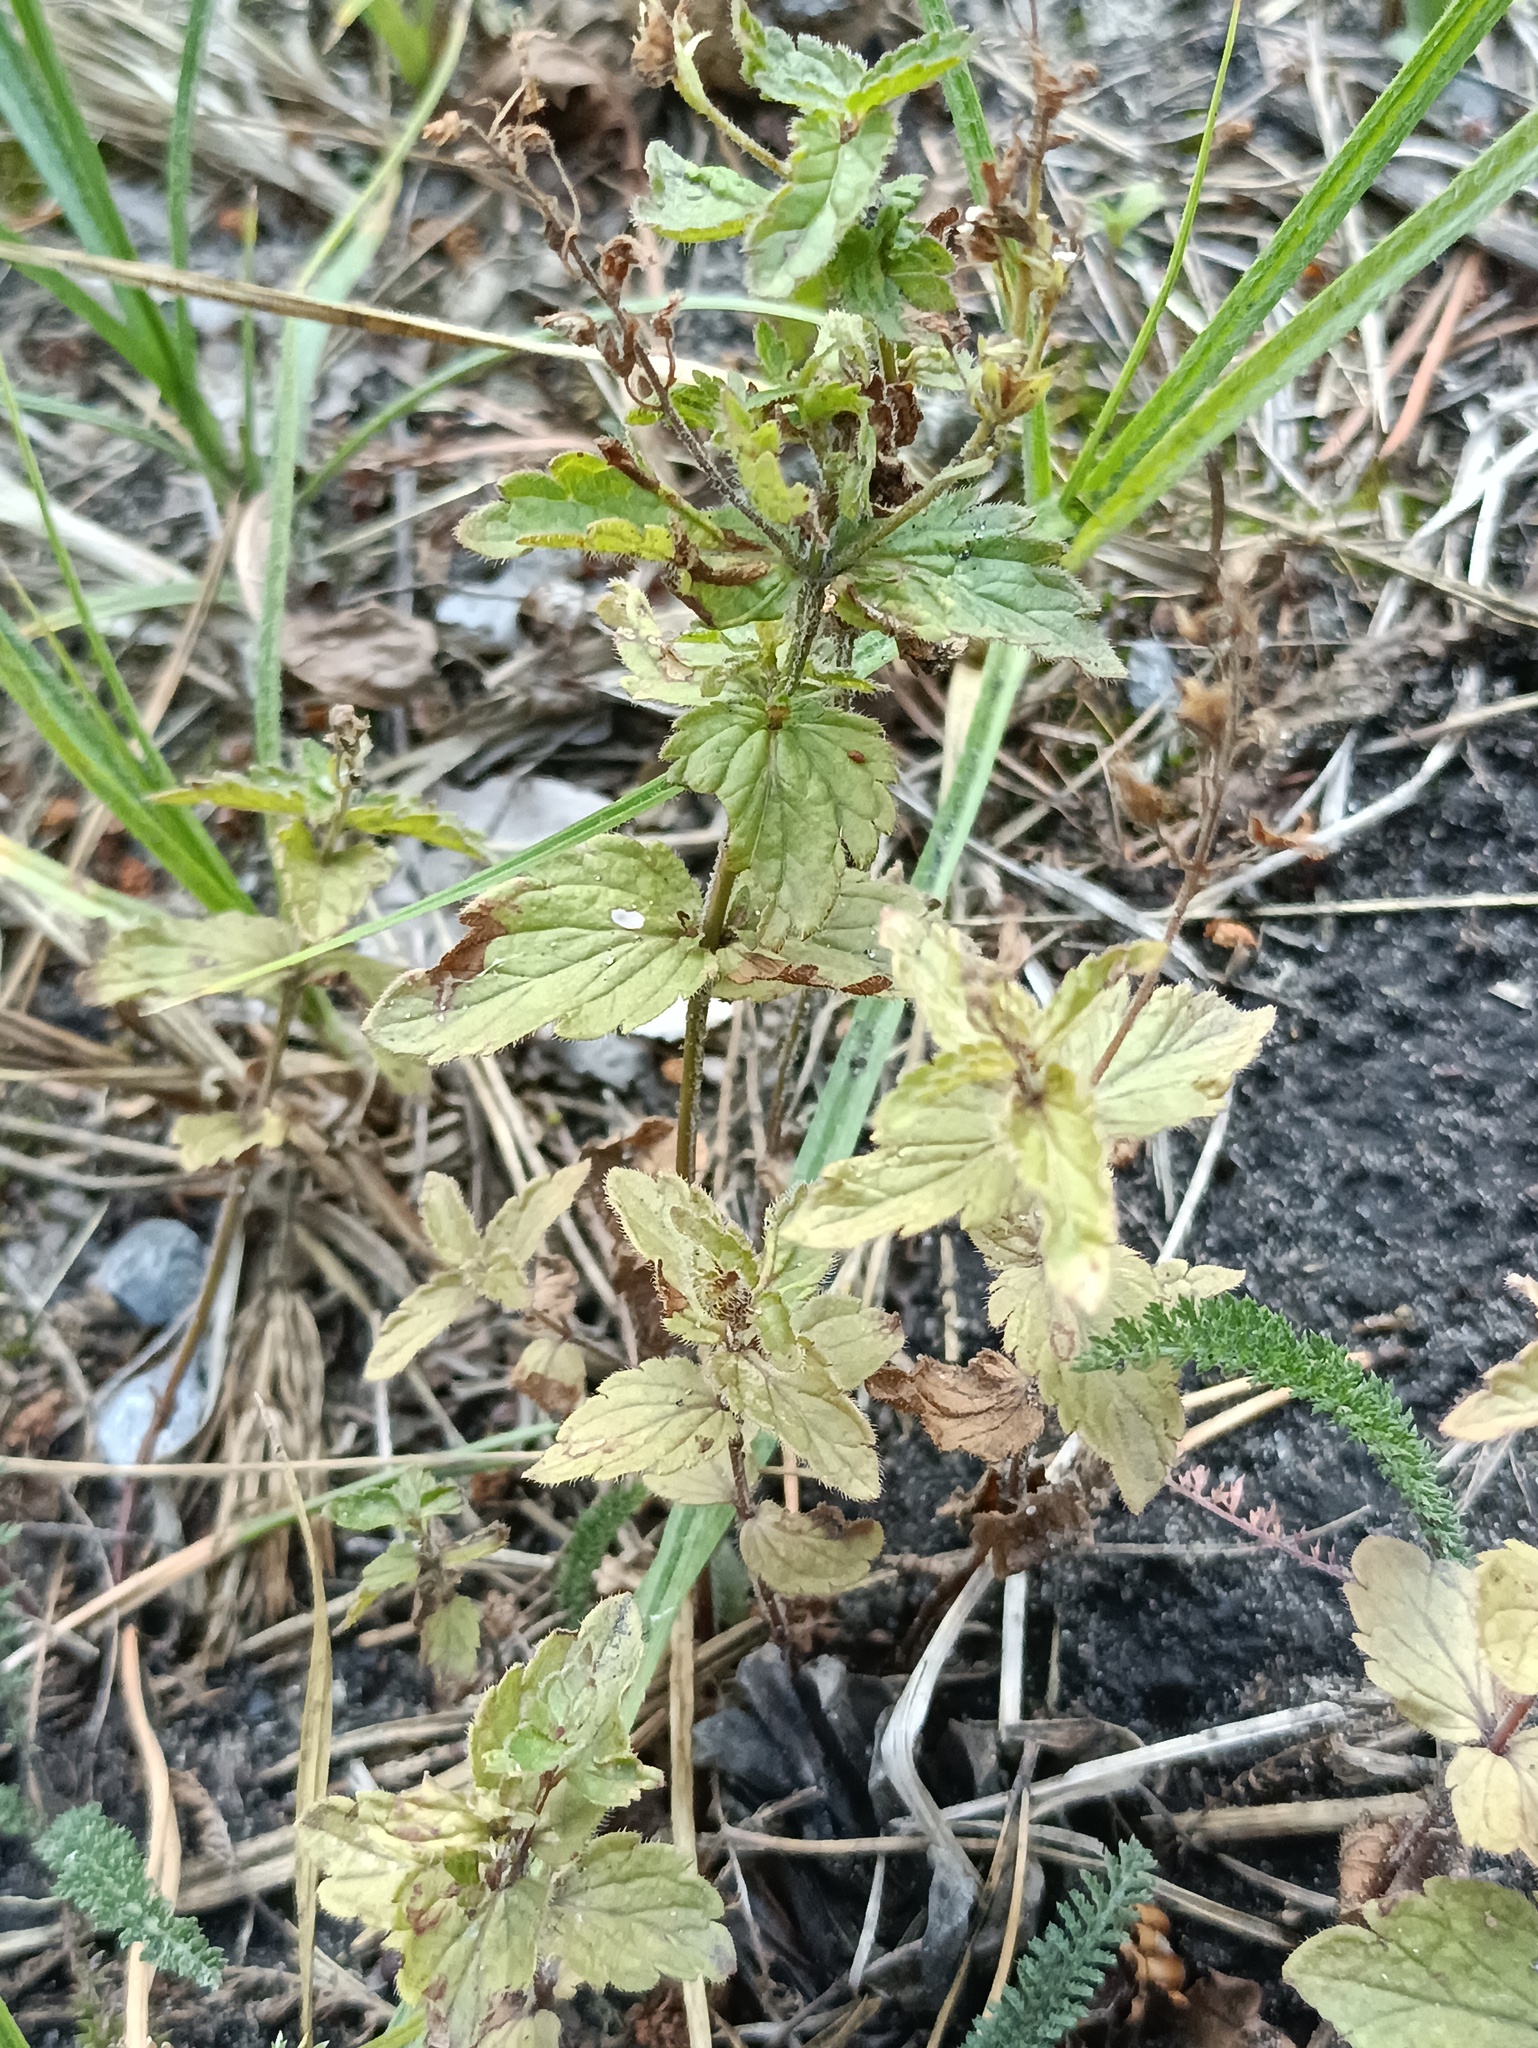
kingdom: Plantae
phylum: Tracheophyta
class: Magnoliopsida
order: Lamiales
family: Plantaginaceae
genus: Veronica
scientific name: Veronica chamaedrys
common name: Germander speedwell
